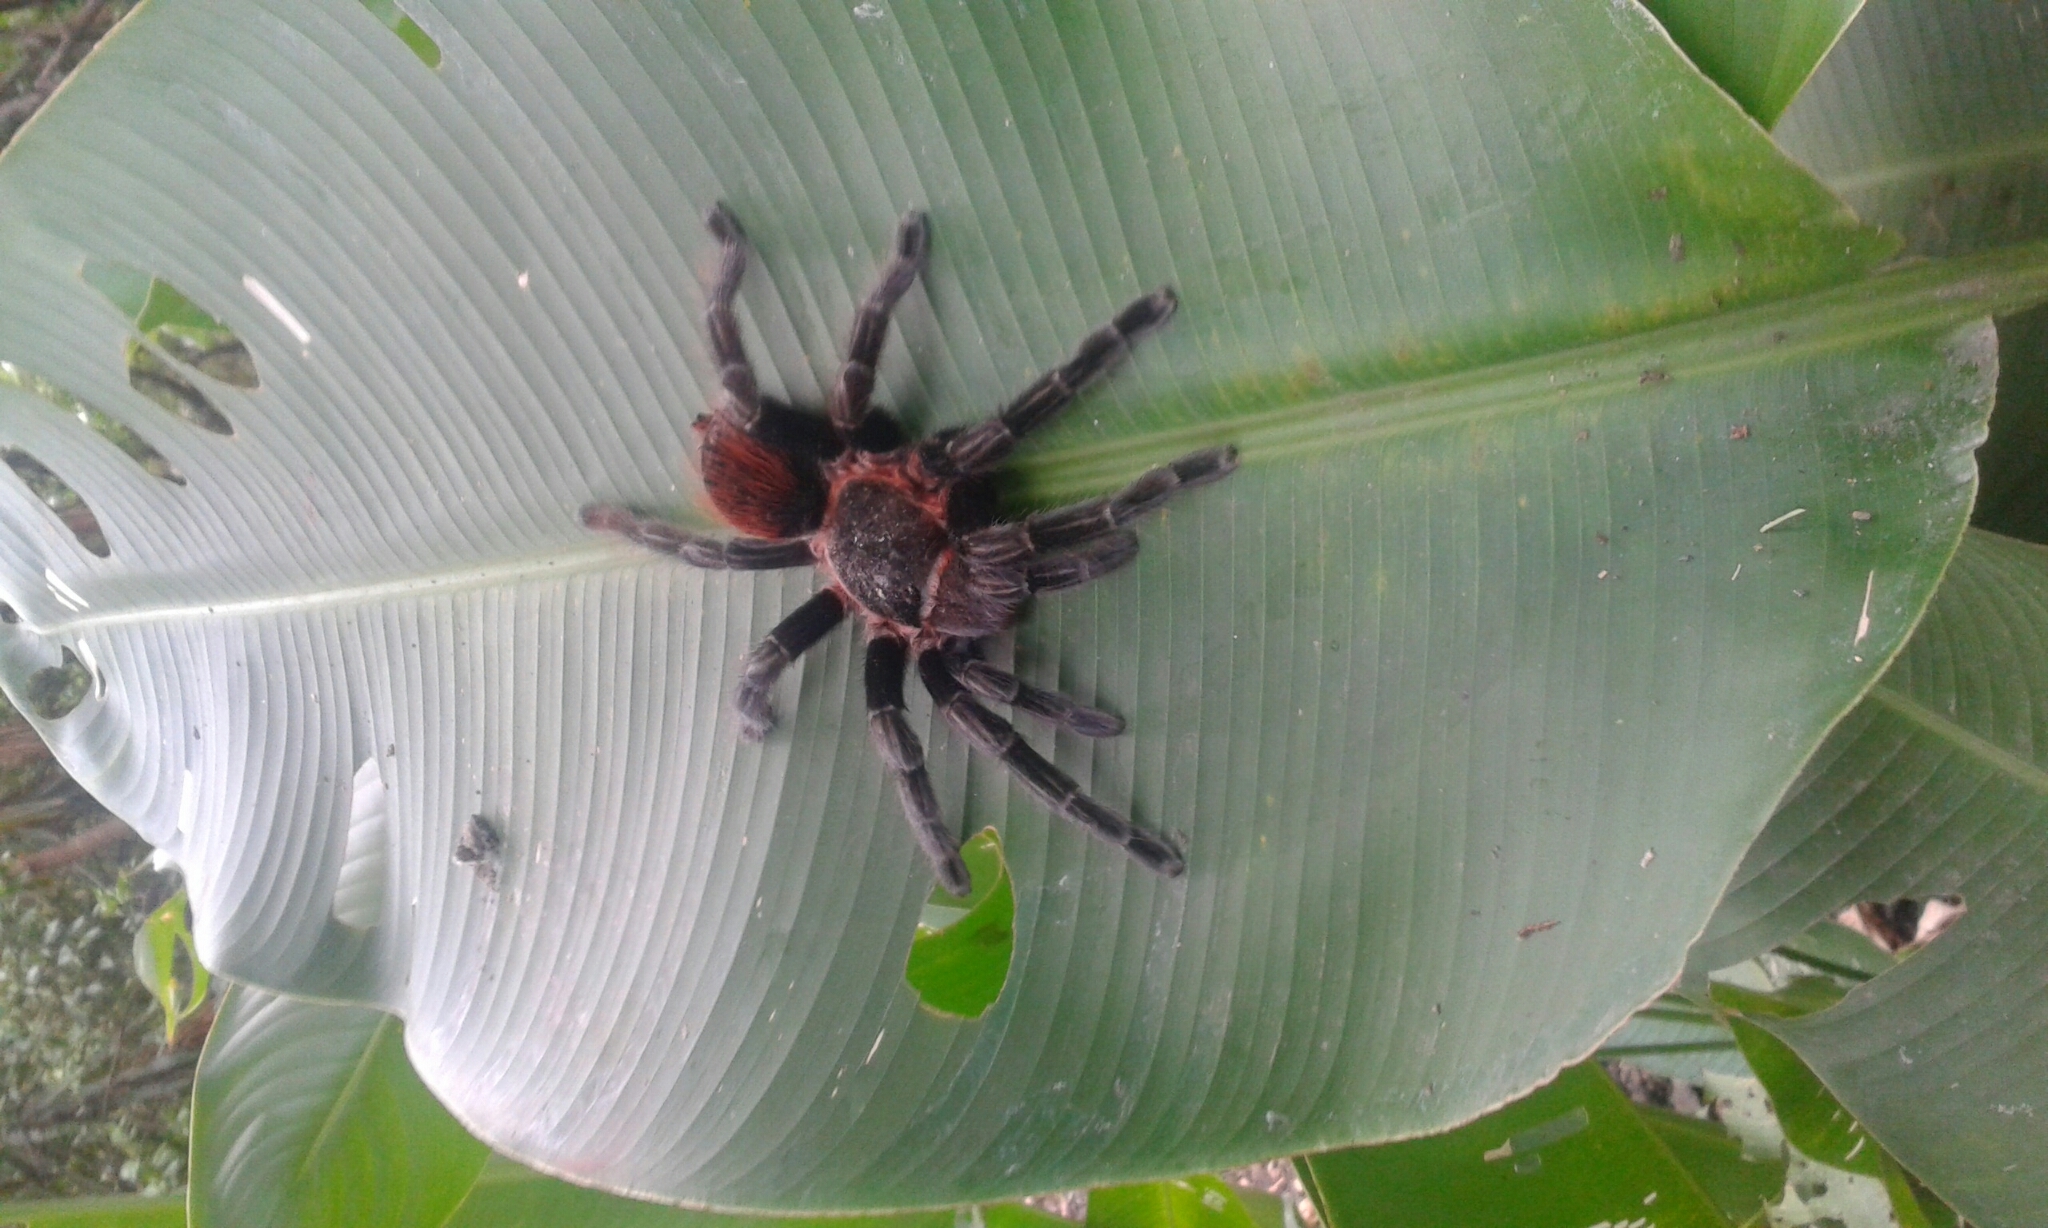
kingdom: Animalia
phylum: Arthropoda
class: Arachnida
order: Araneae
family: Theraphosidae
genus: Tliltocatl
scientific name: Tliltocatl kahlenbergi
